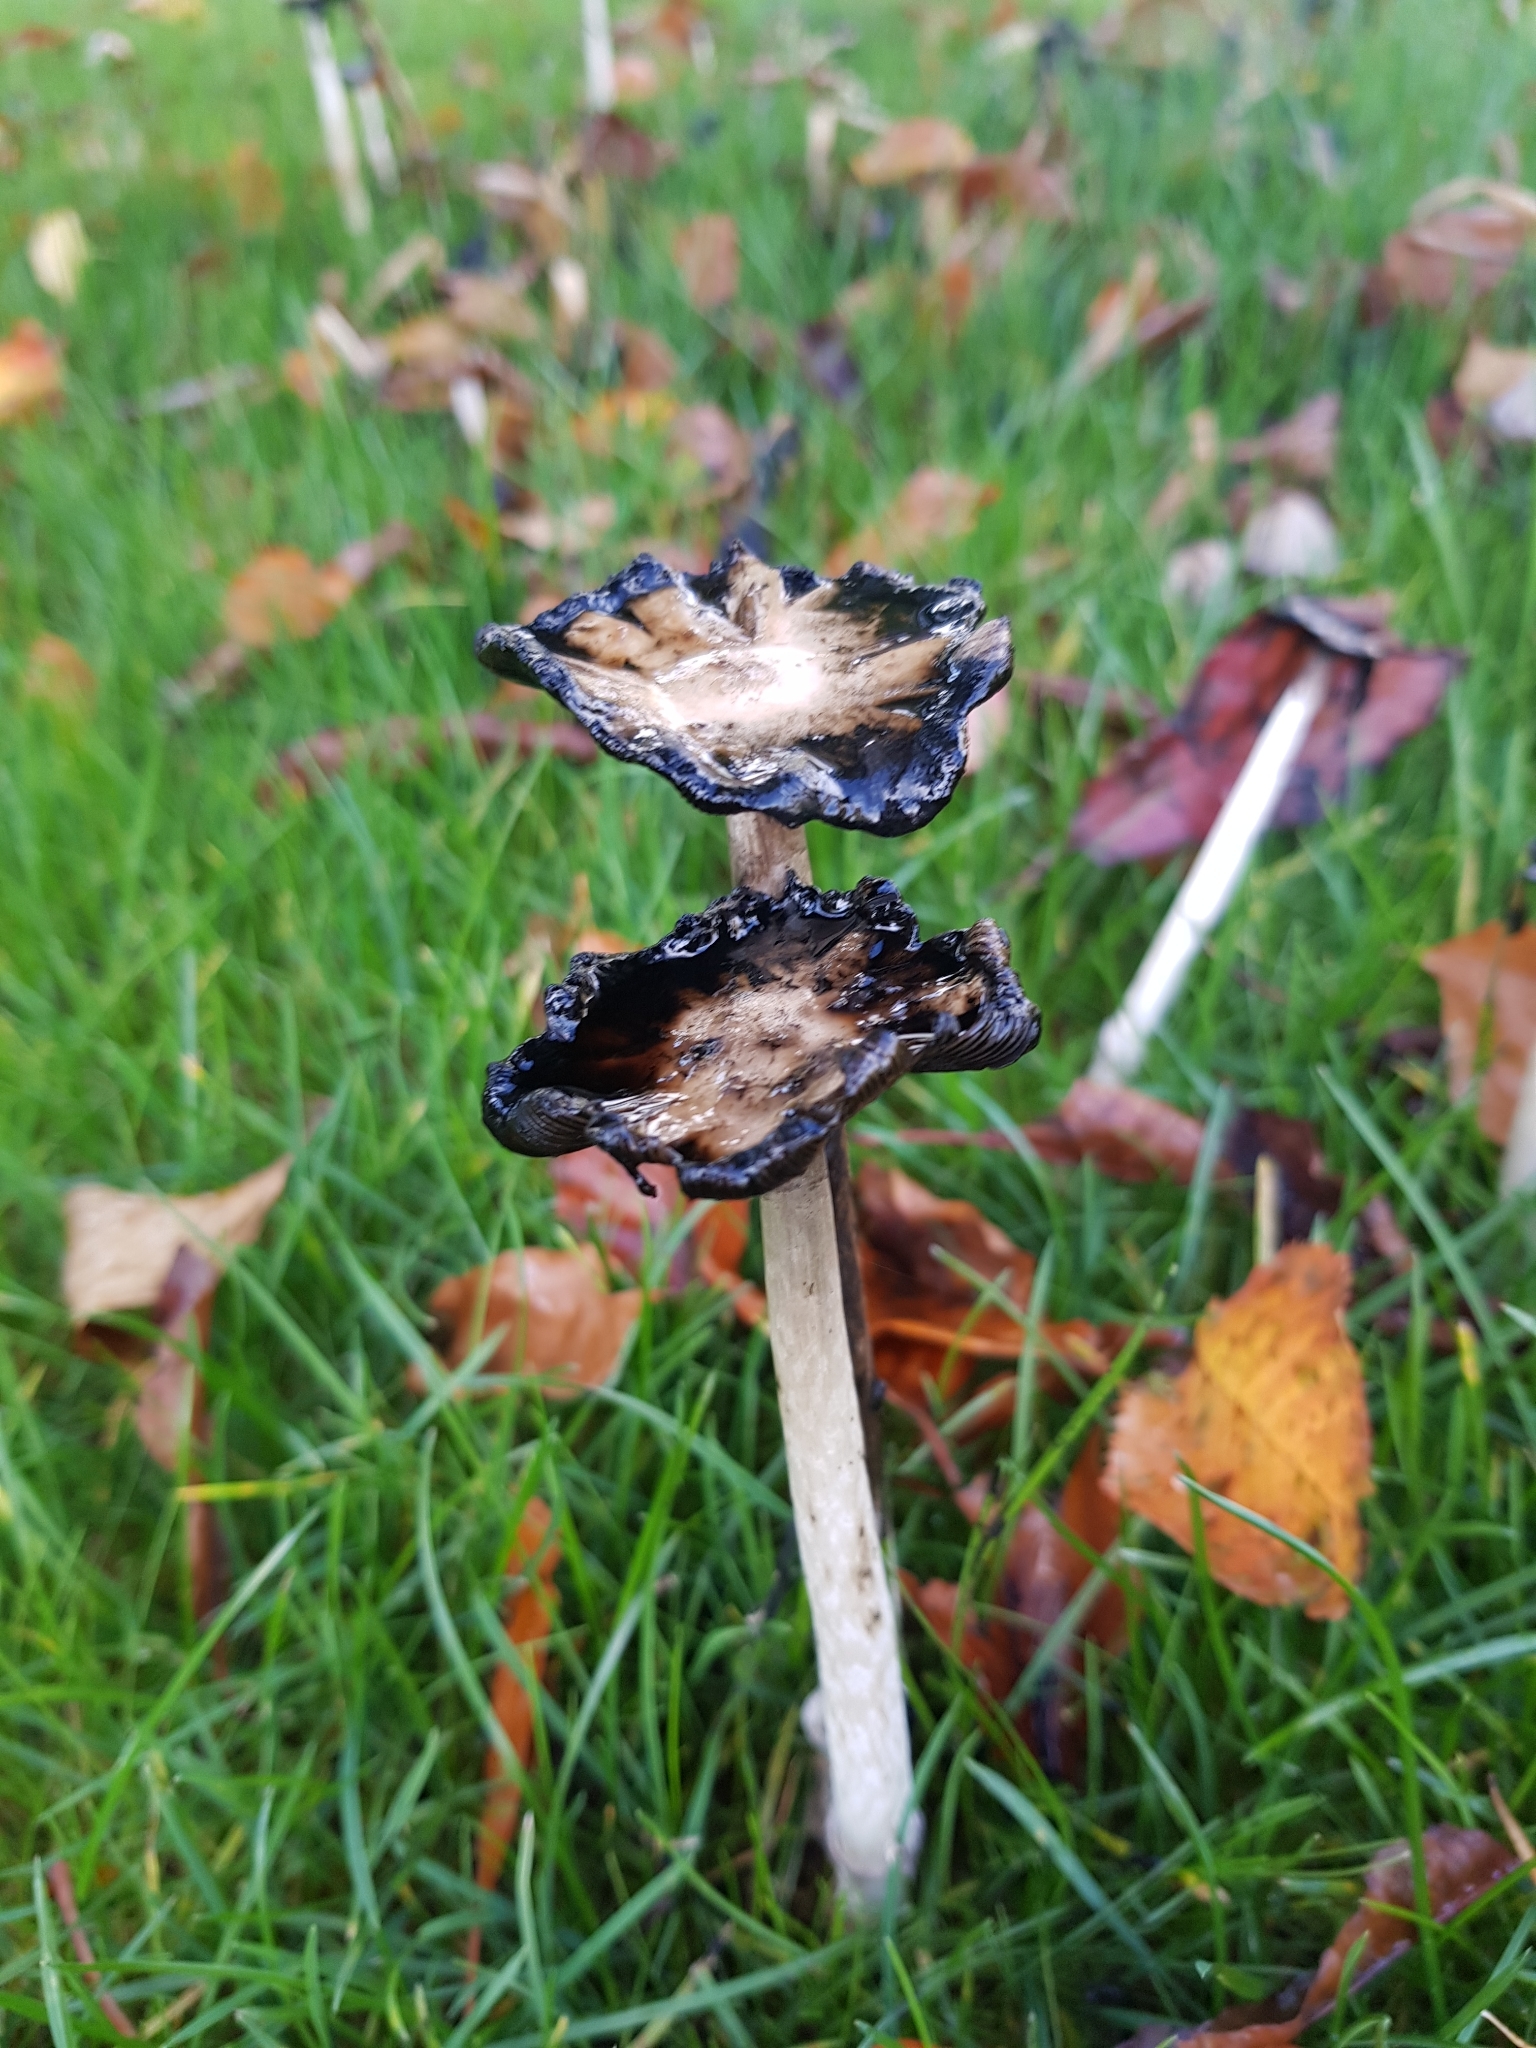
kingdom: Fungi
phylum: Basidiomycota
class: Agaricomycetes
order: Agaricales
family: Agaricaceae
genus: Coprinus
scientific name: Coprinus comatus
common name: Lawyer's wig
